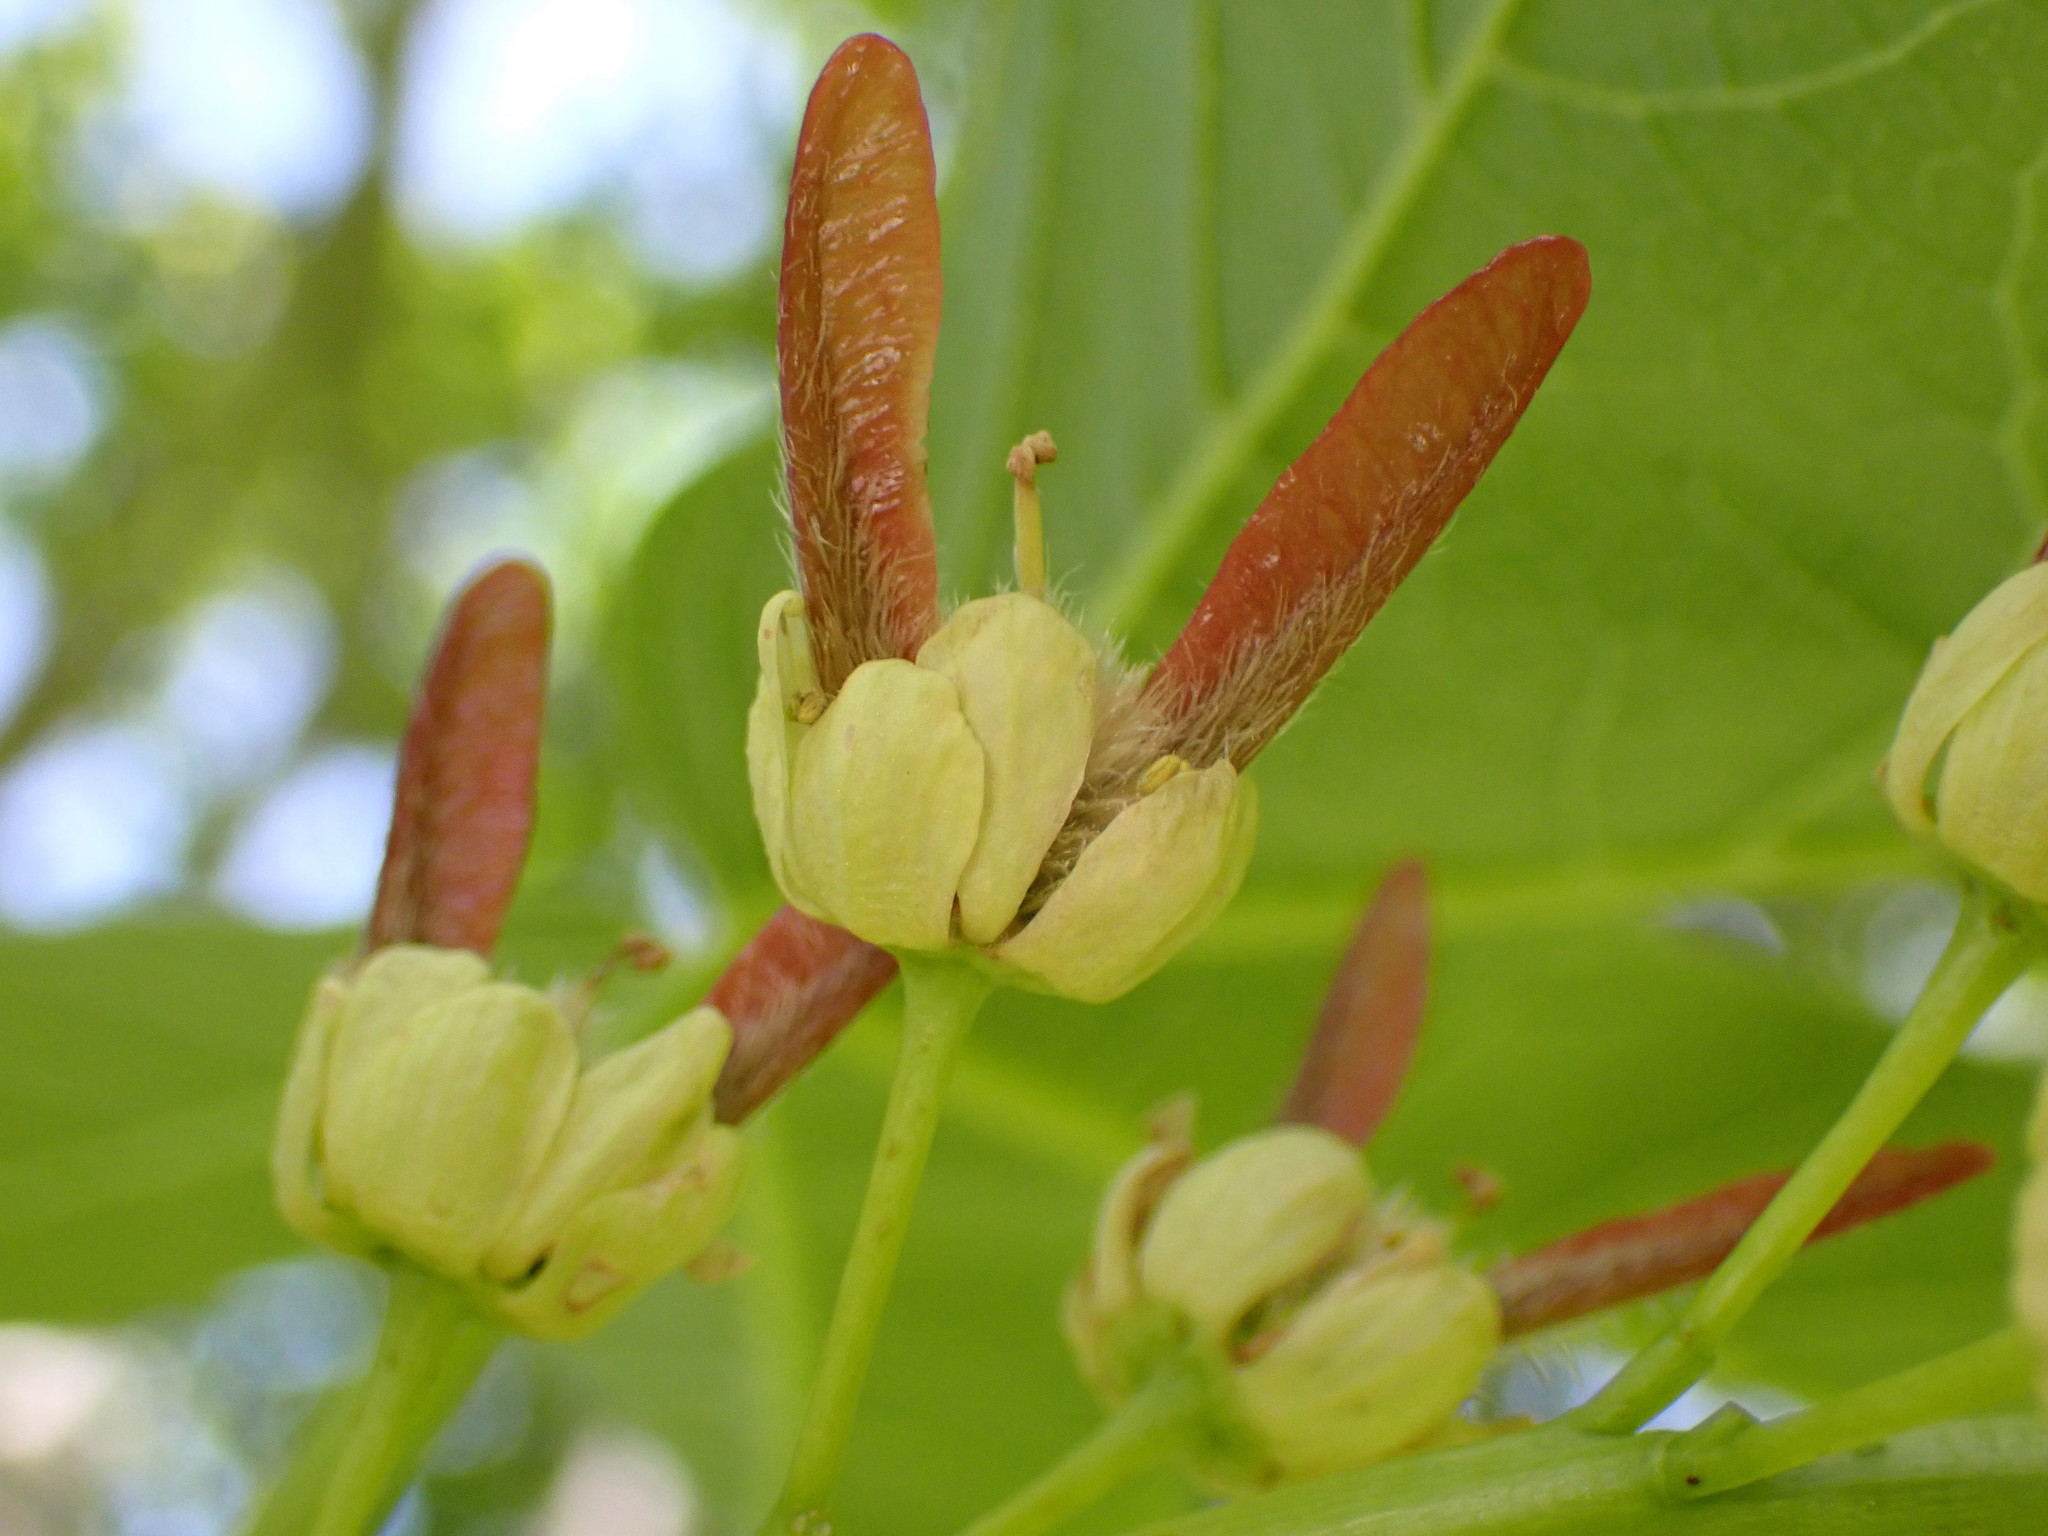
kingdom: Plantae
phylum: Tracheophyta
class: Magnoliopsida
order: Sapindales
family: Sapindaceae
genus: Acer
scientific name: Acer macrophyllum
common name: Oregon maple
